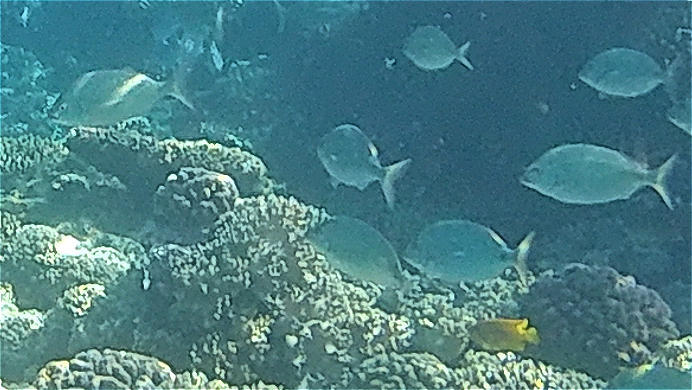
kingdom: Animalia
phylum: Chordata
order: Perciformes
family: Sparidae
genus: Diplodus
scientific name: Diplodus noct
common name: Arabian pinfish
